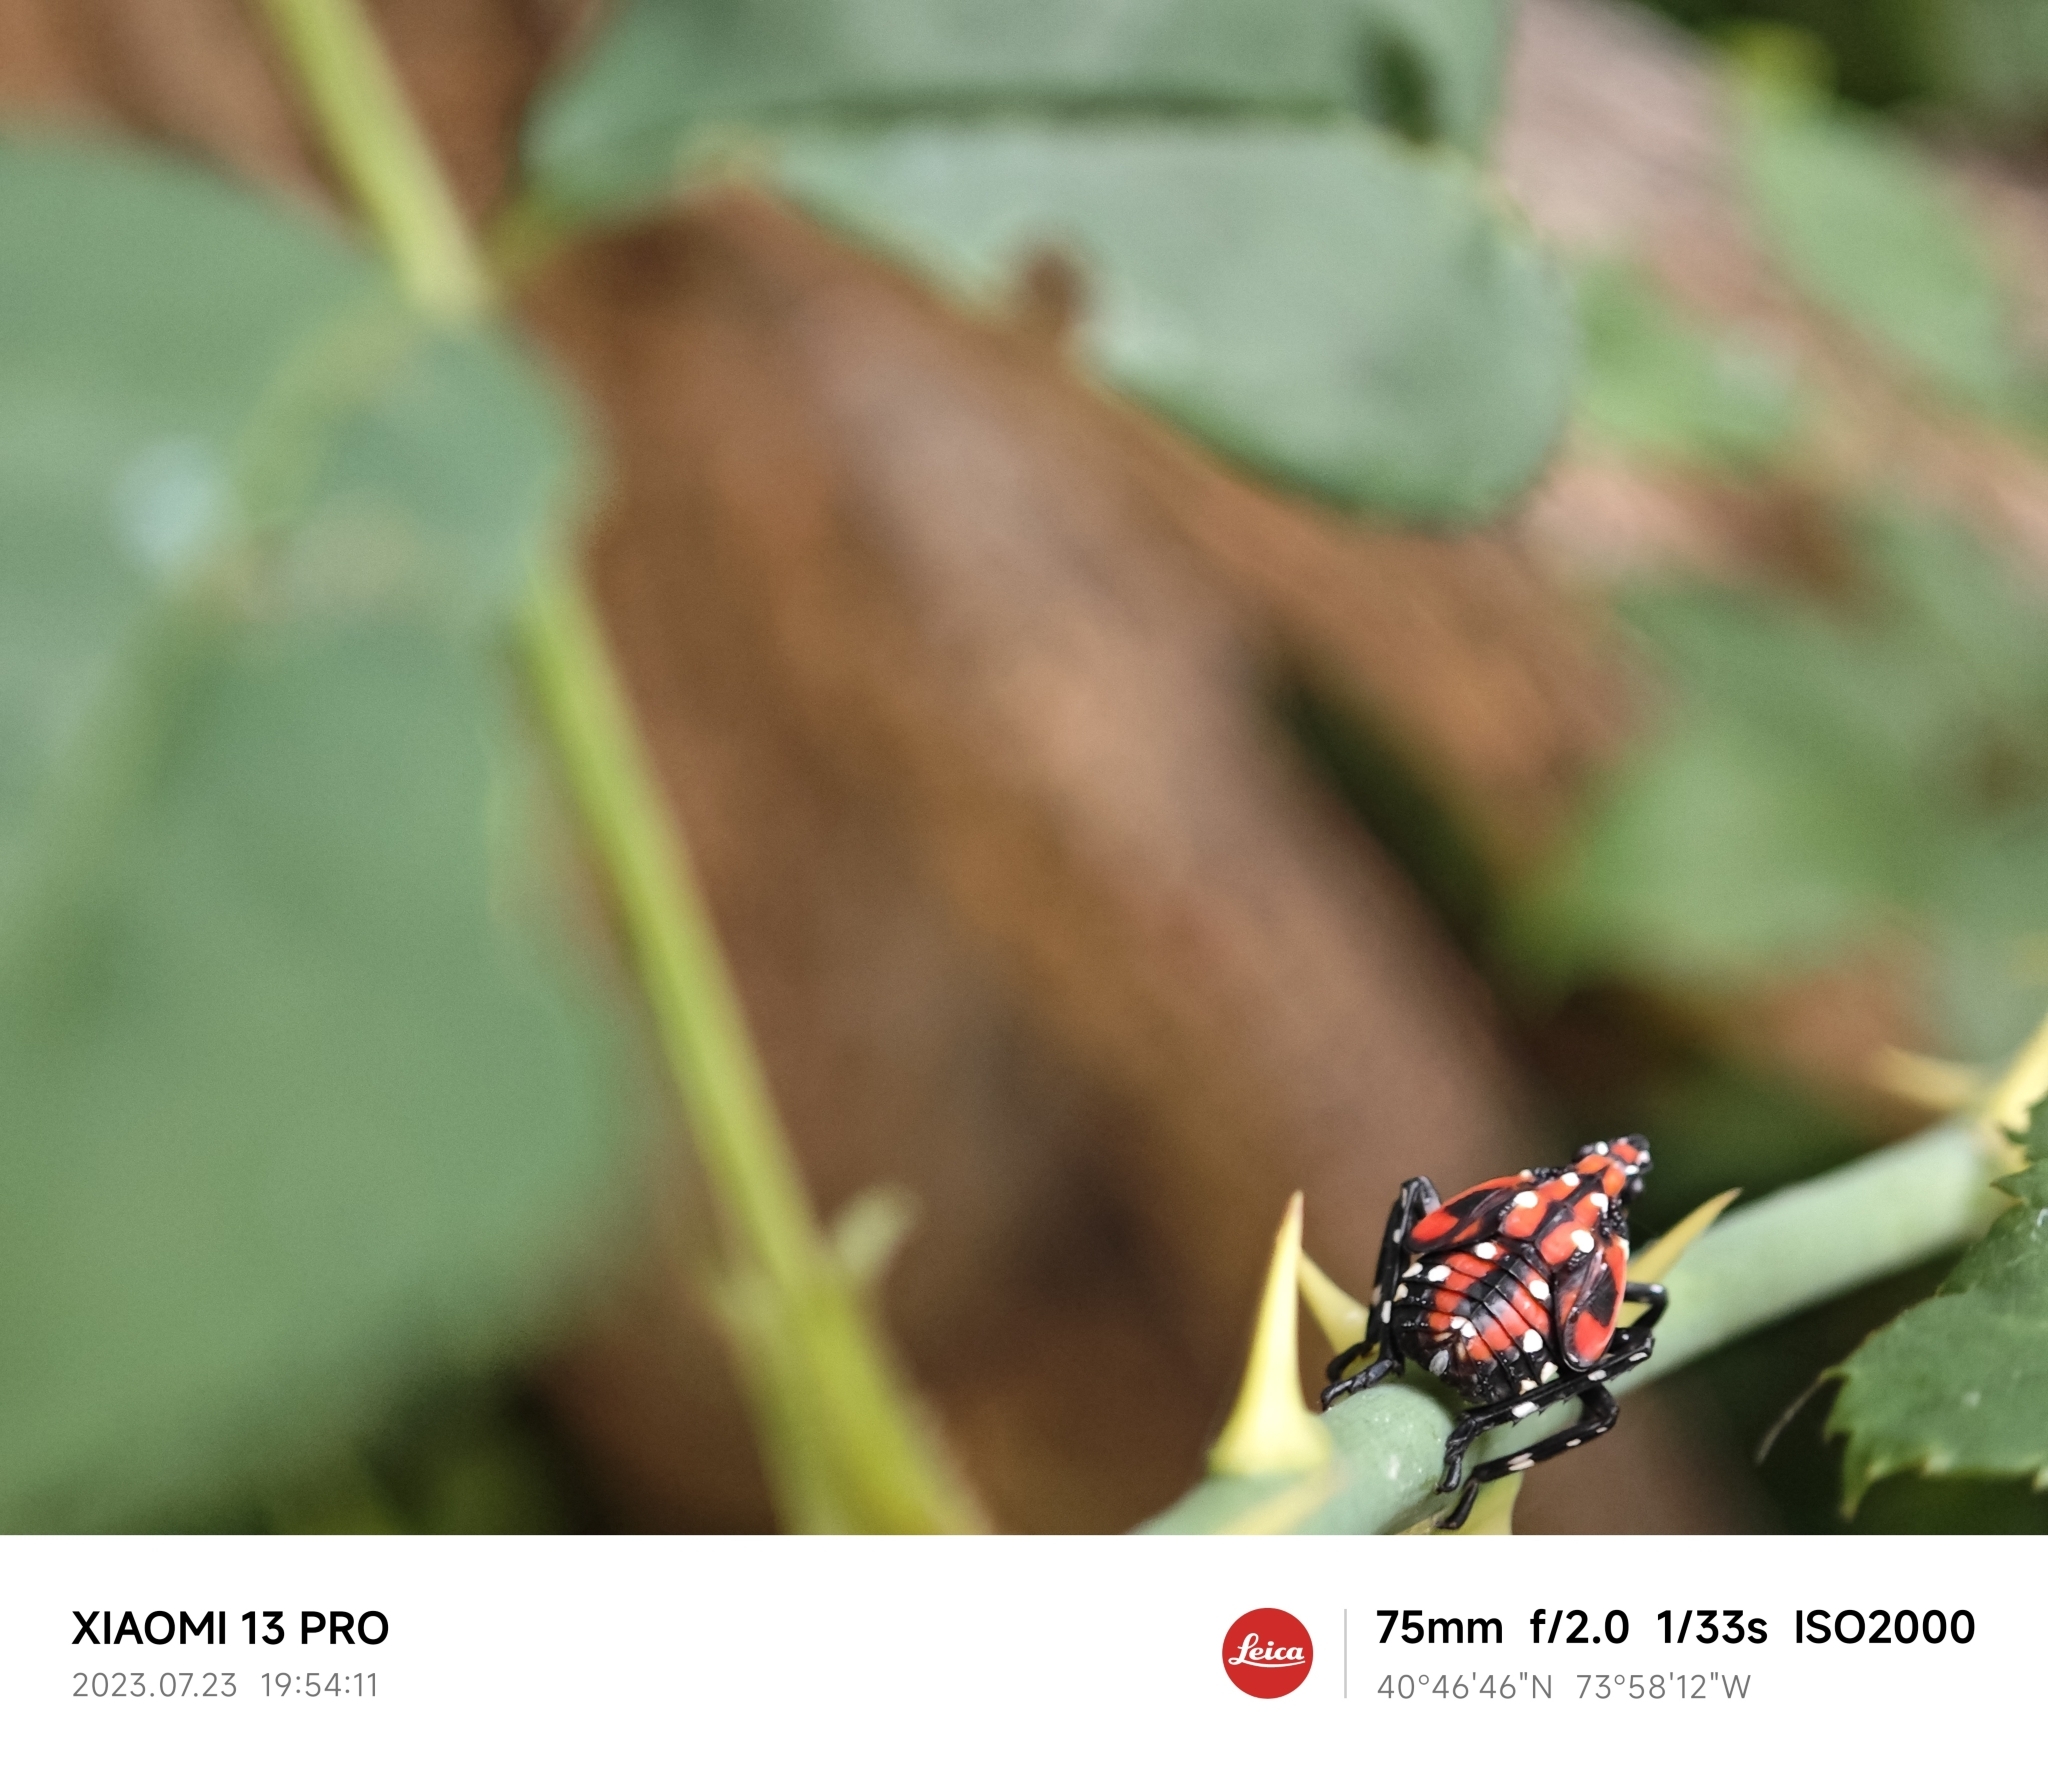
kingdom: Animalia
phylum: Arthropoda
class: Insecta
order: Hemiptera
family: Fulgoridae
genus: Lycorma
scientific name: Lycorma delicatula
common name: Spotted lanternfly
